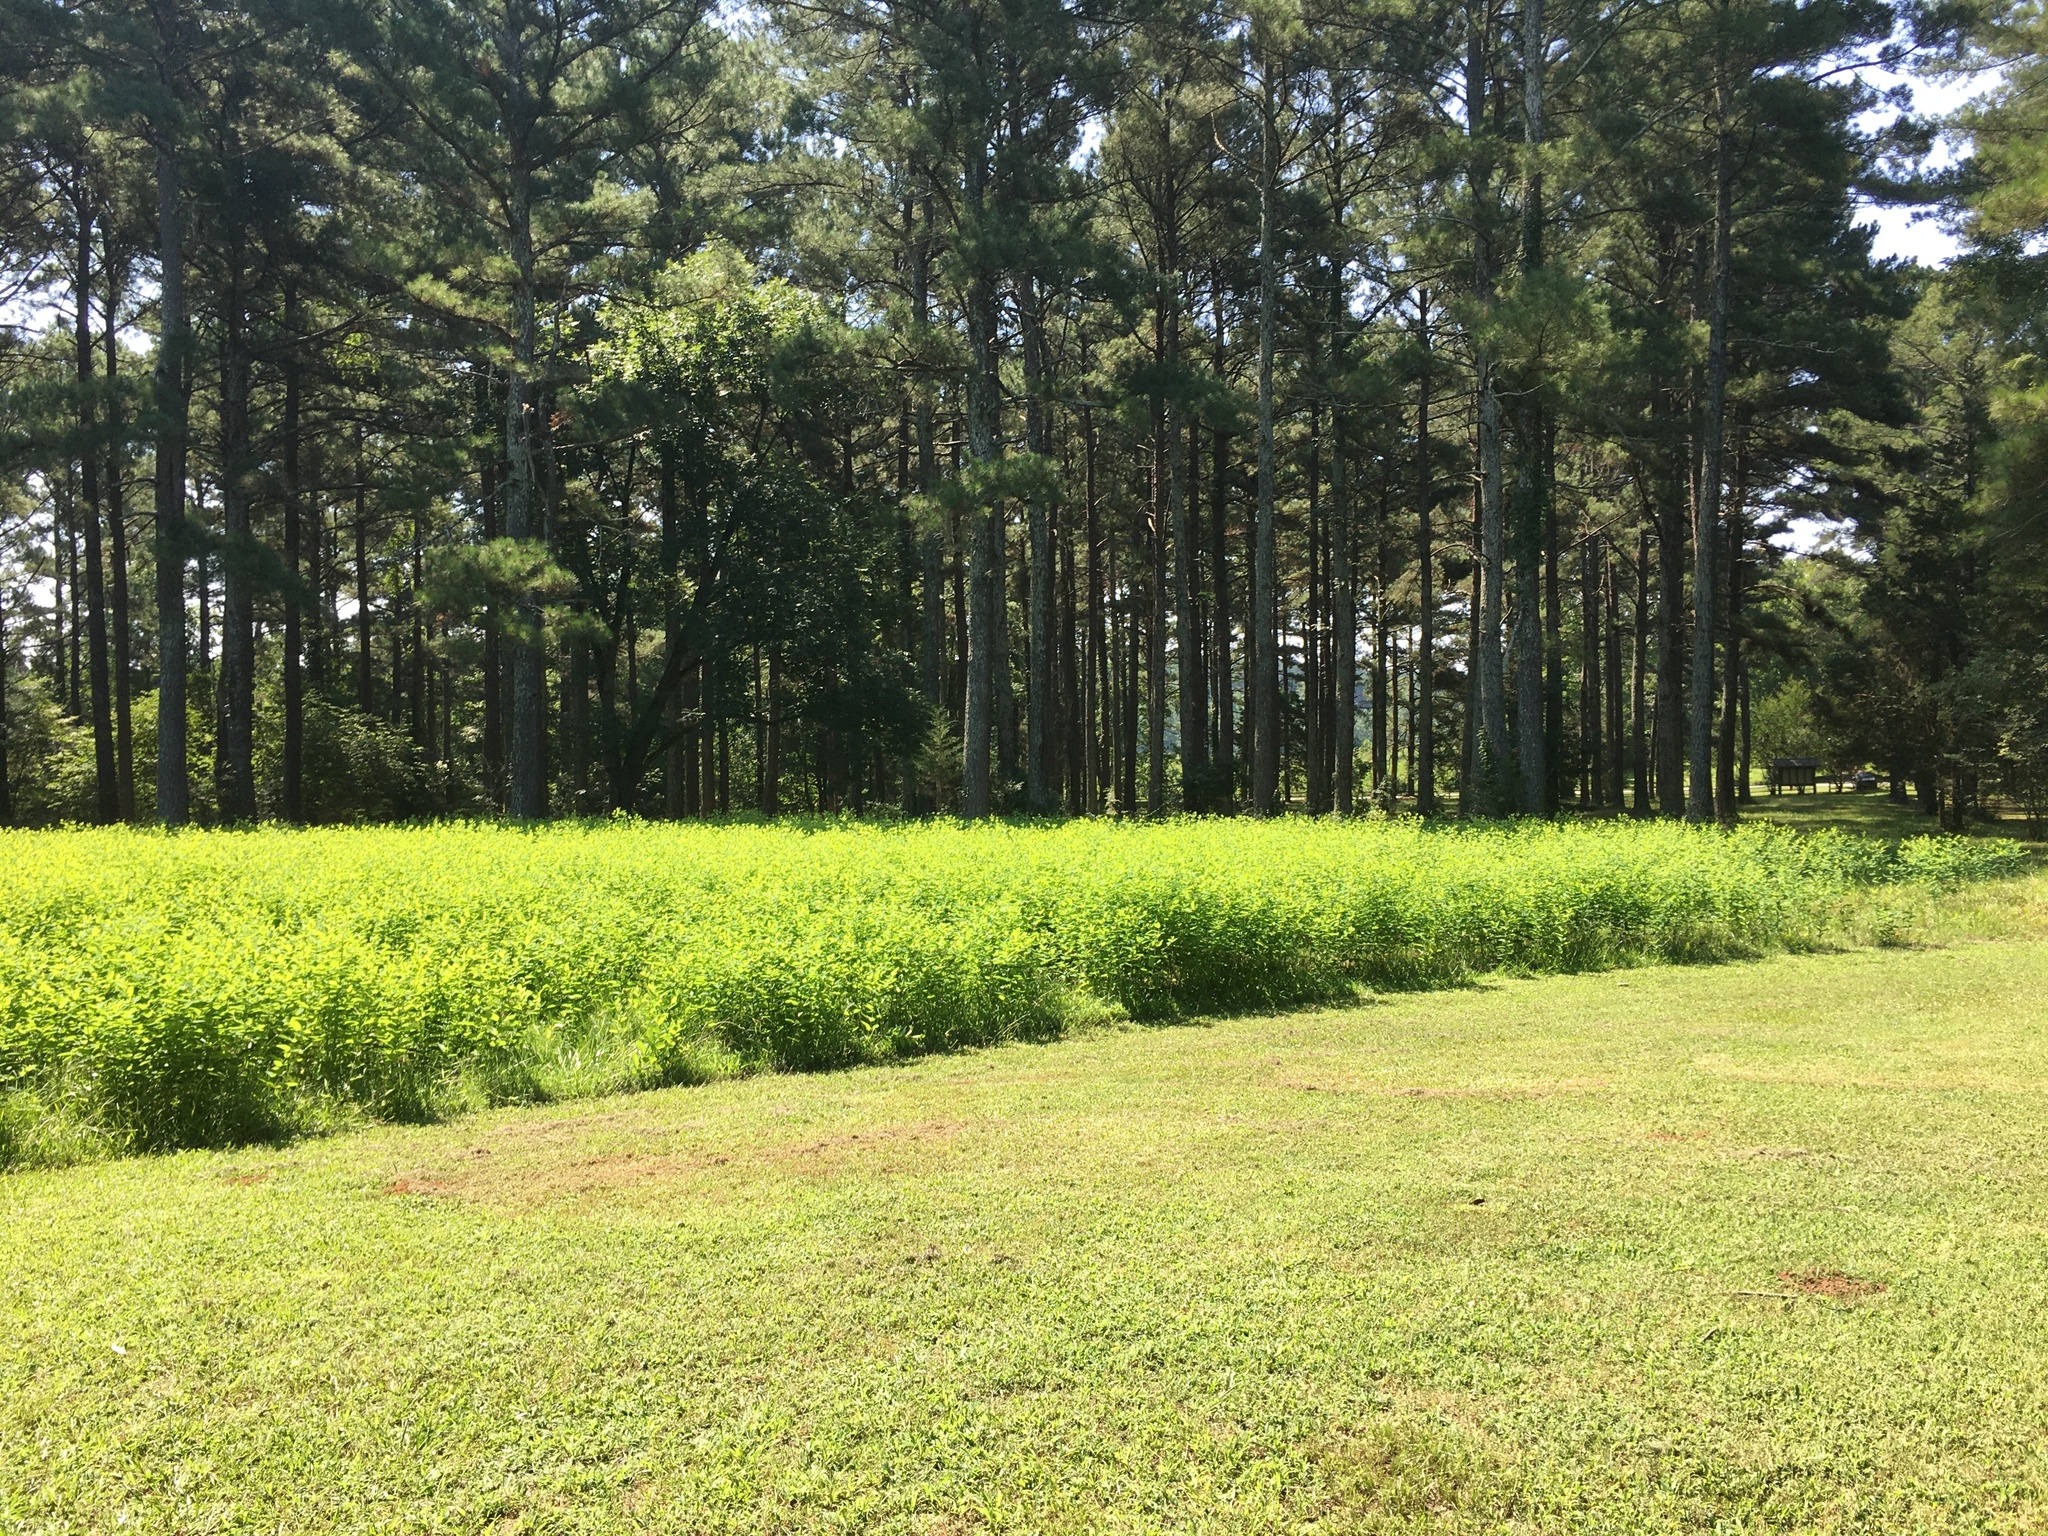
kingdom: Plantae
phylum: Tracheophyta
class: Magnoliopsida
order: Gentianales
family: Apocynaceae
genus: Apocynum
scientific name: Apocynum cannabinum
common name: Hemp dogbane
